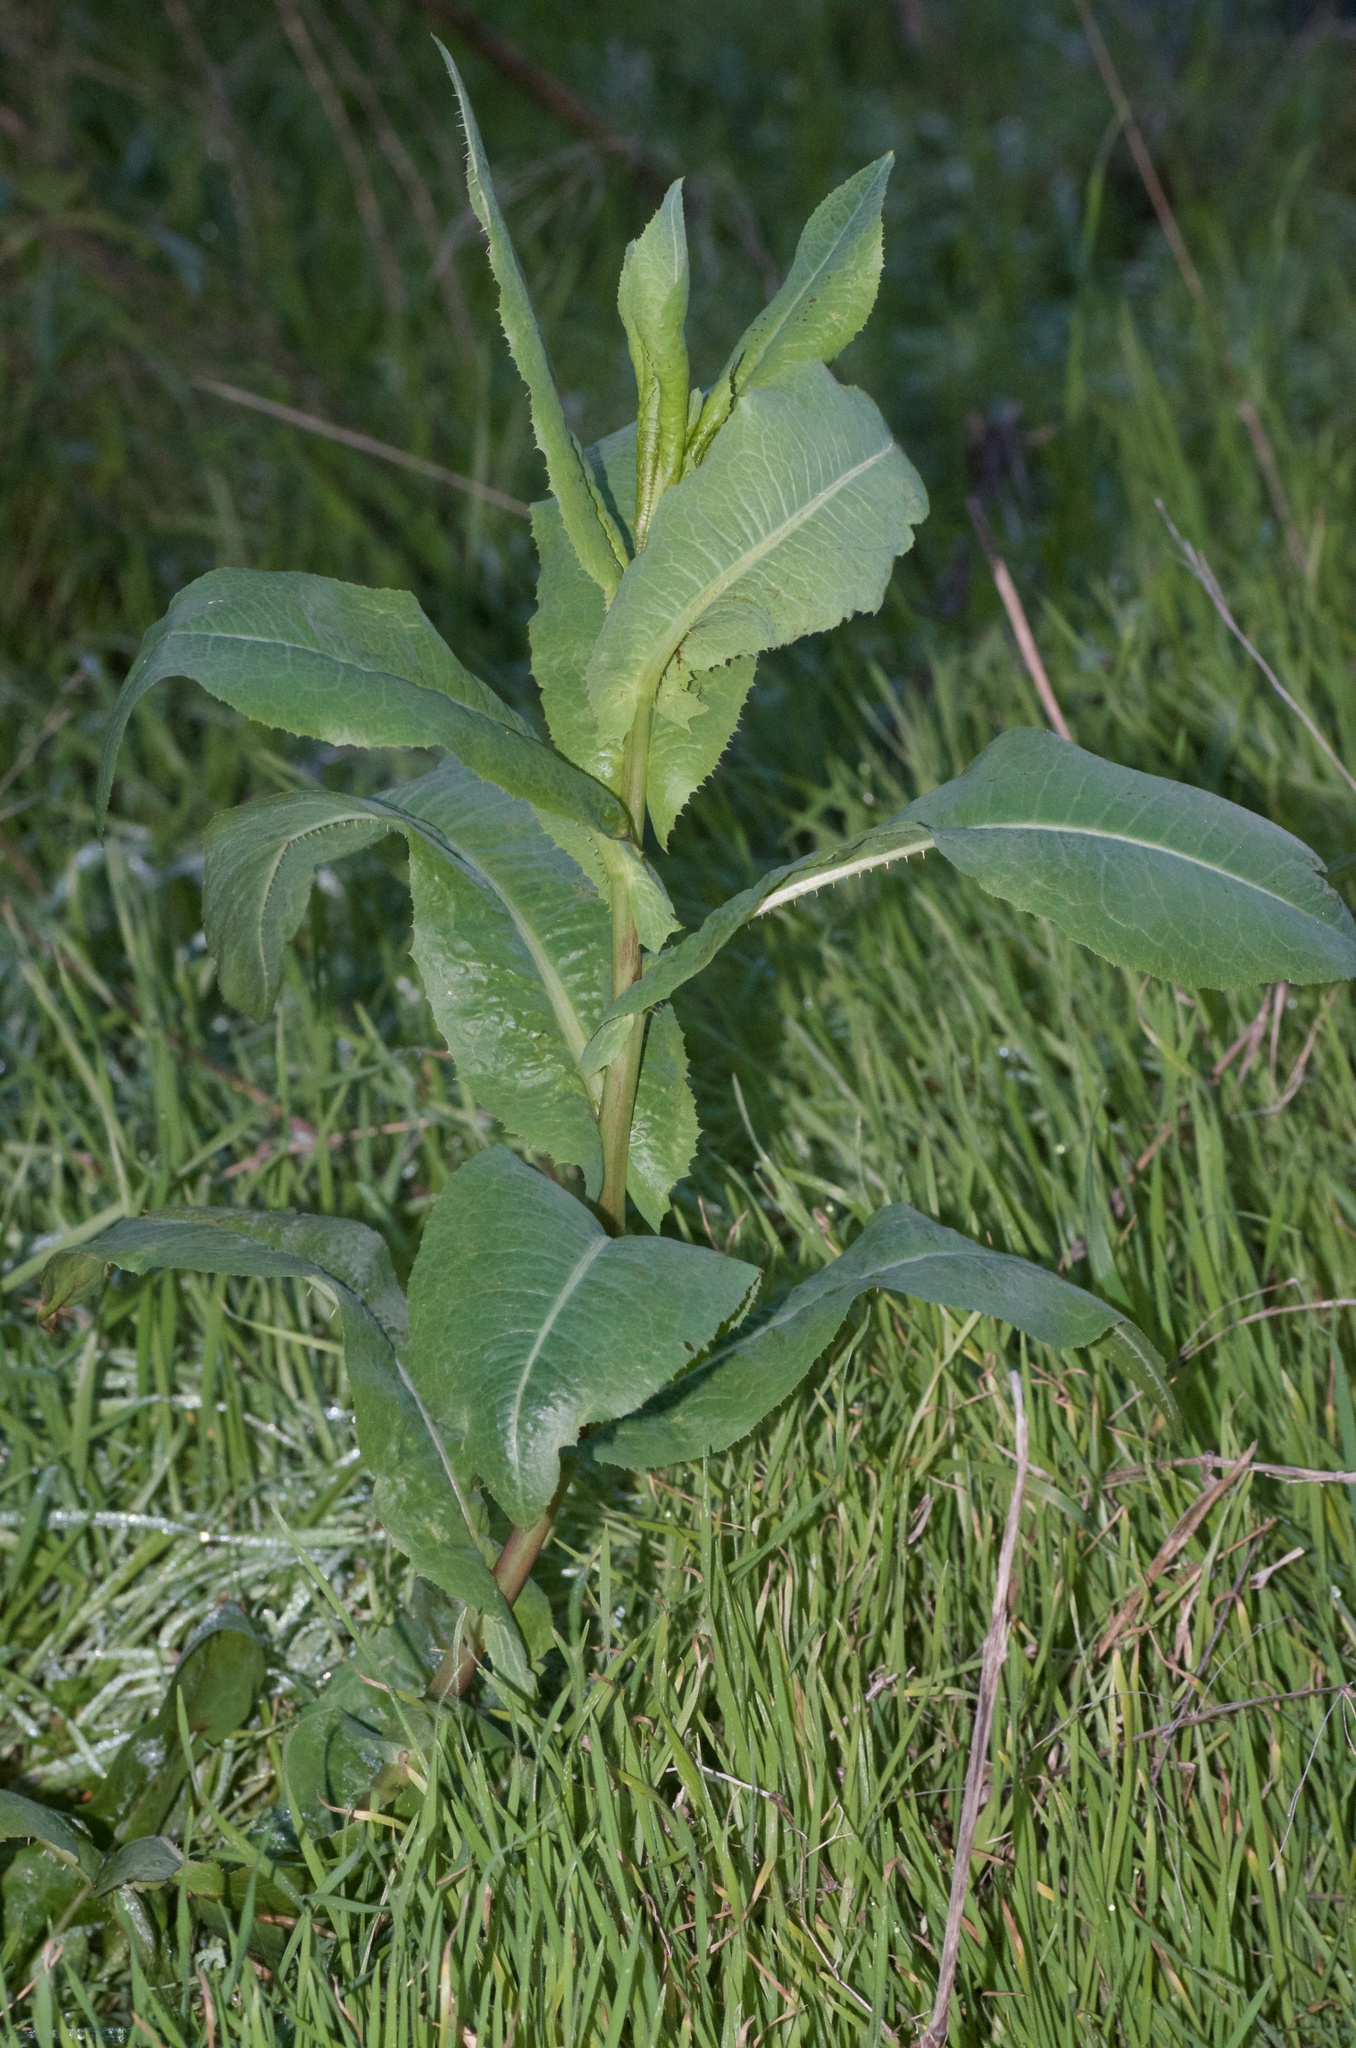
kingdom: Plantae
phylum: Tracheophyta
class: Magnoliopsida
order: Asterales
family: Asteraceae
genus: Lactuca
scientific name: Lactuca serriola
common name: Prickly lettuce
